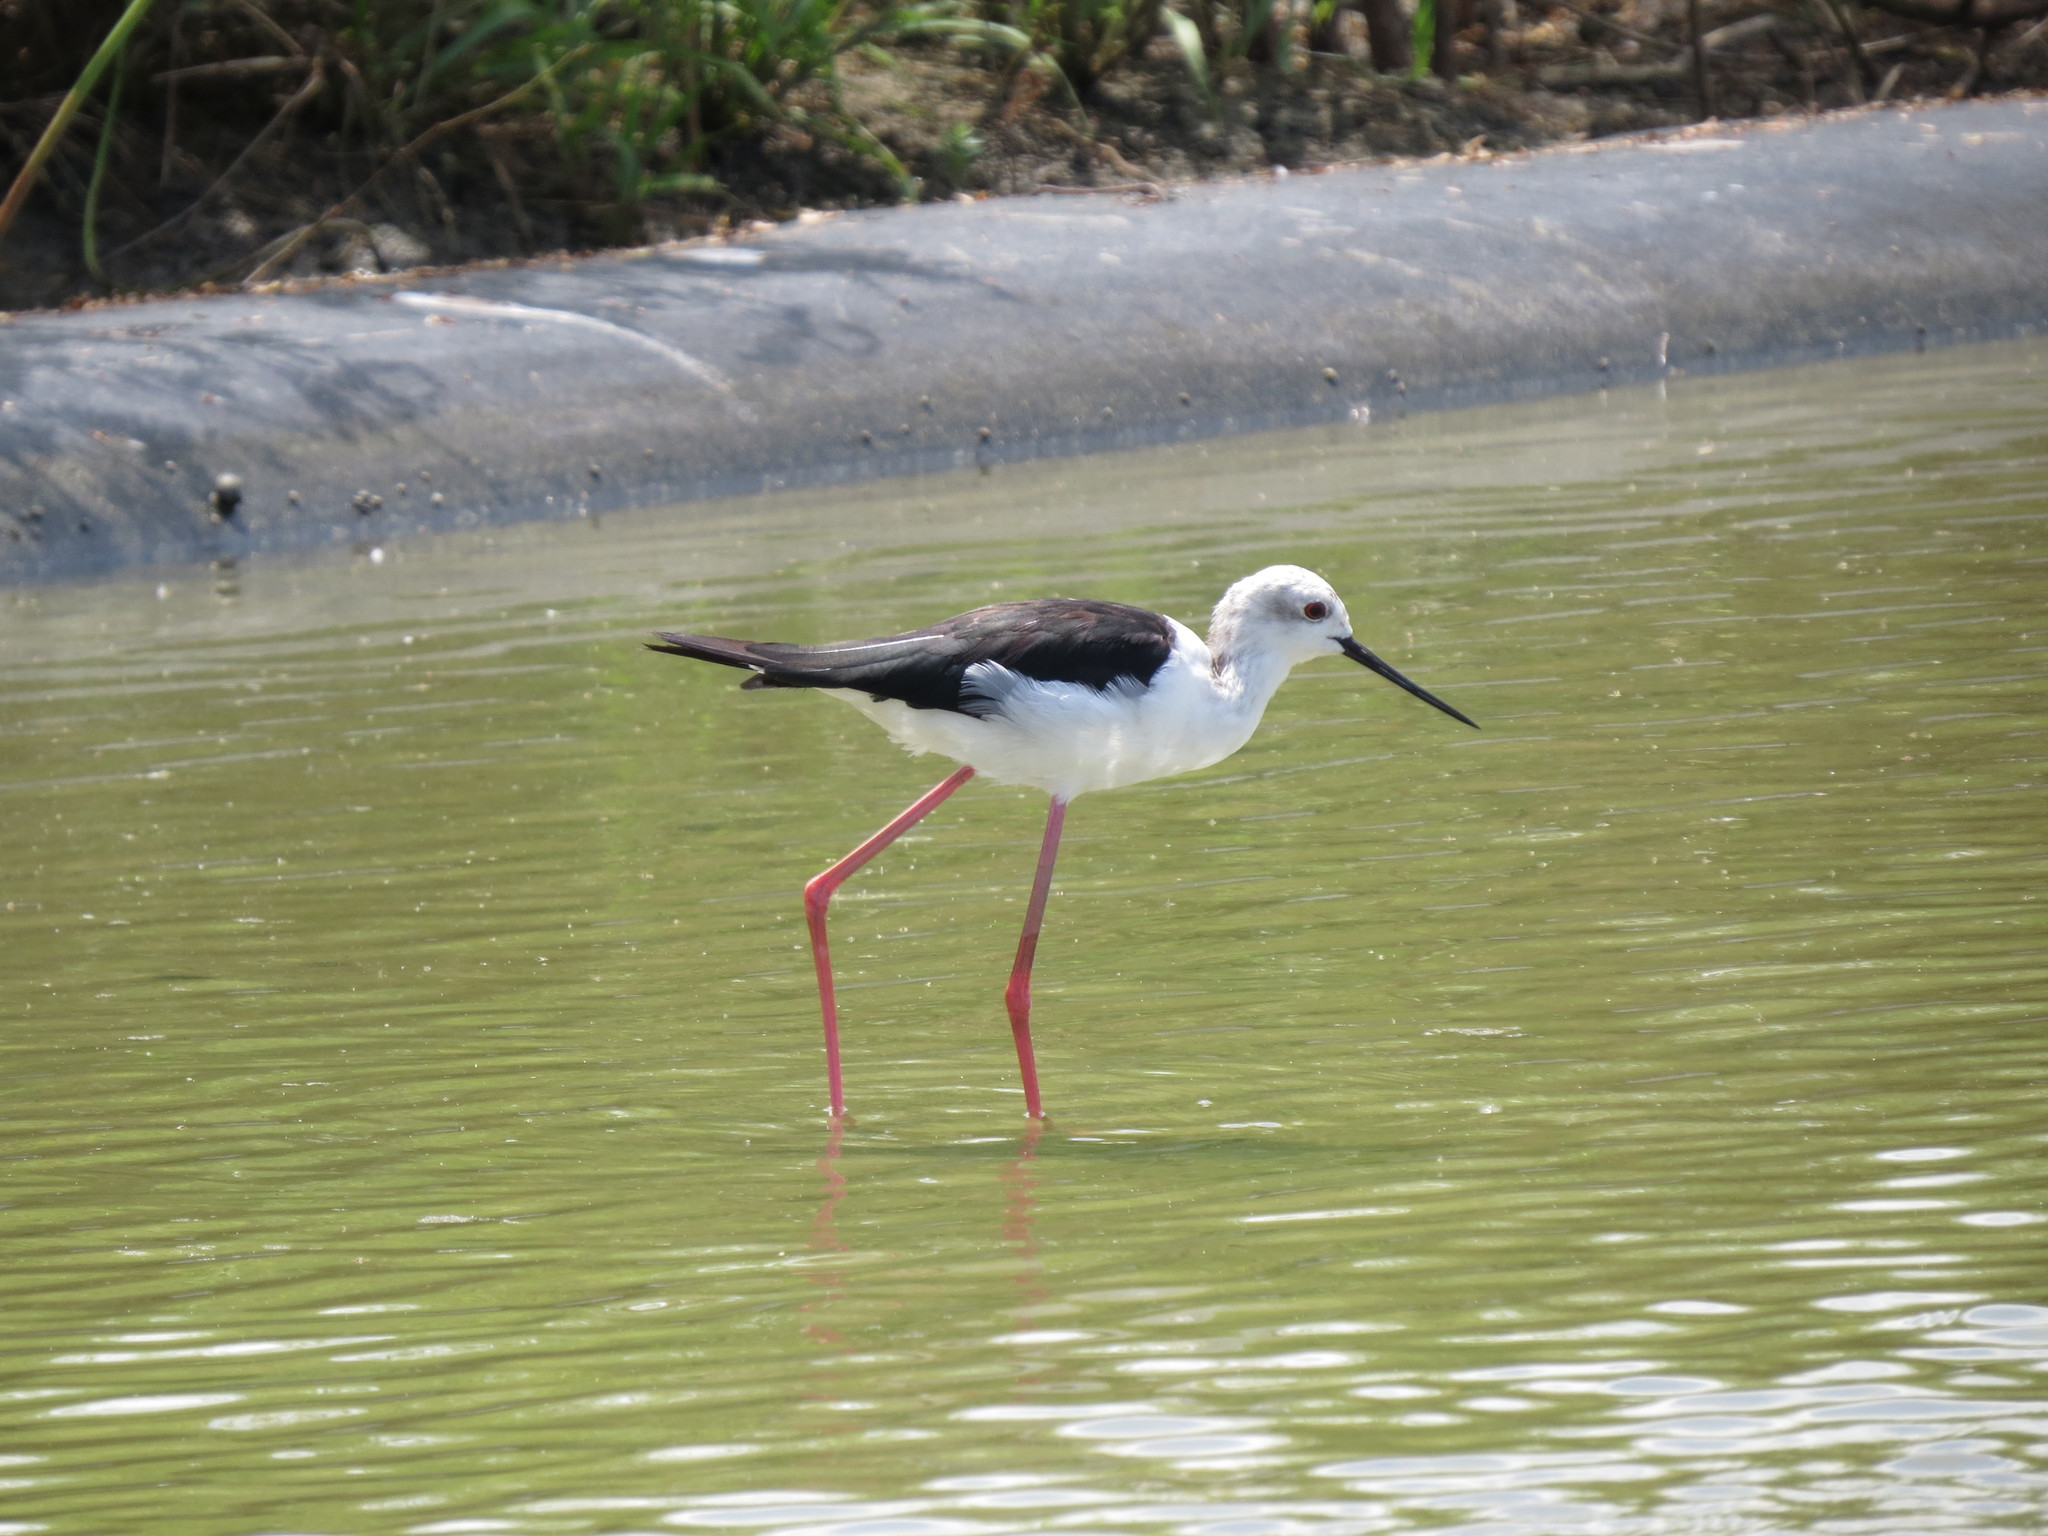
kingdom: Animalia
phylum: Chordata
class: Aves
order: Charadriiformes
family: Recurvirostridae
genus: Himantopus
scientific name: Himantopus himantopus
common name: Black-winged stilt
